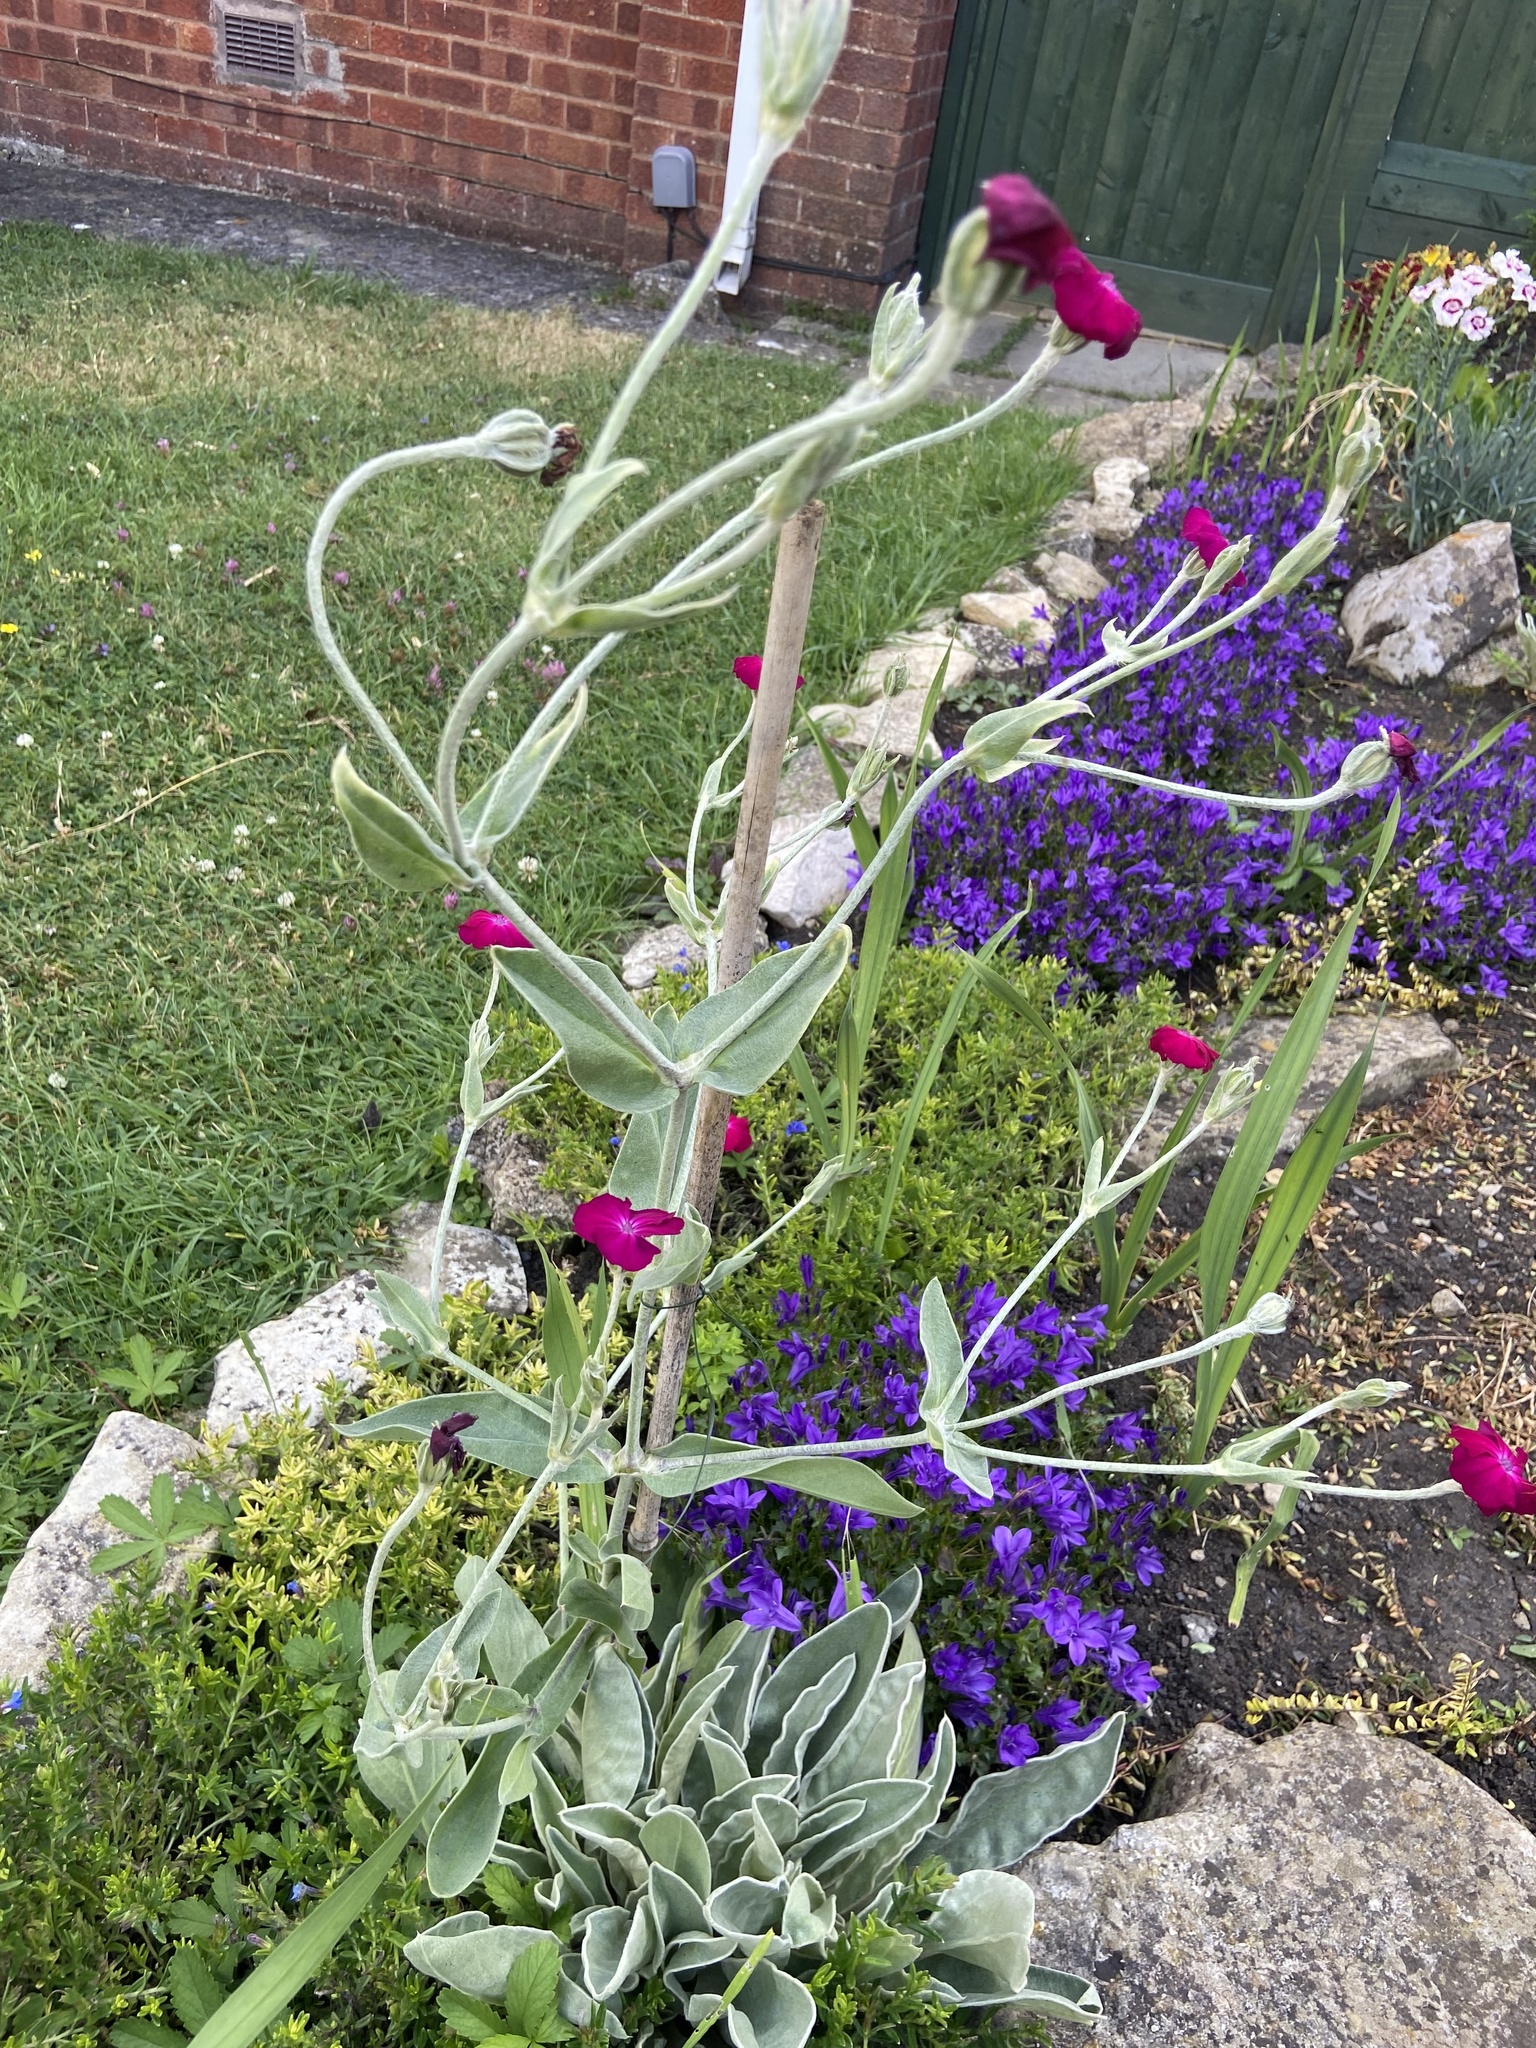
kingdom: Plantae
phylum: Tracheophyta
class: Magnoliopsida
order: Caryophyllales
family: Caryophyllaceae
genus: Silene
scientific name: Silene coronaria
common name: Rose campion
